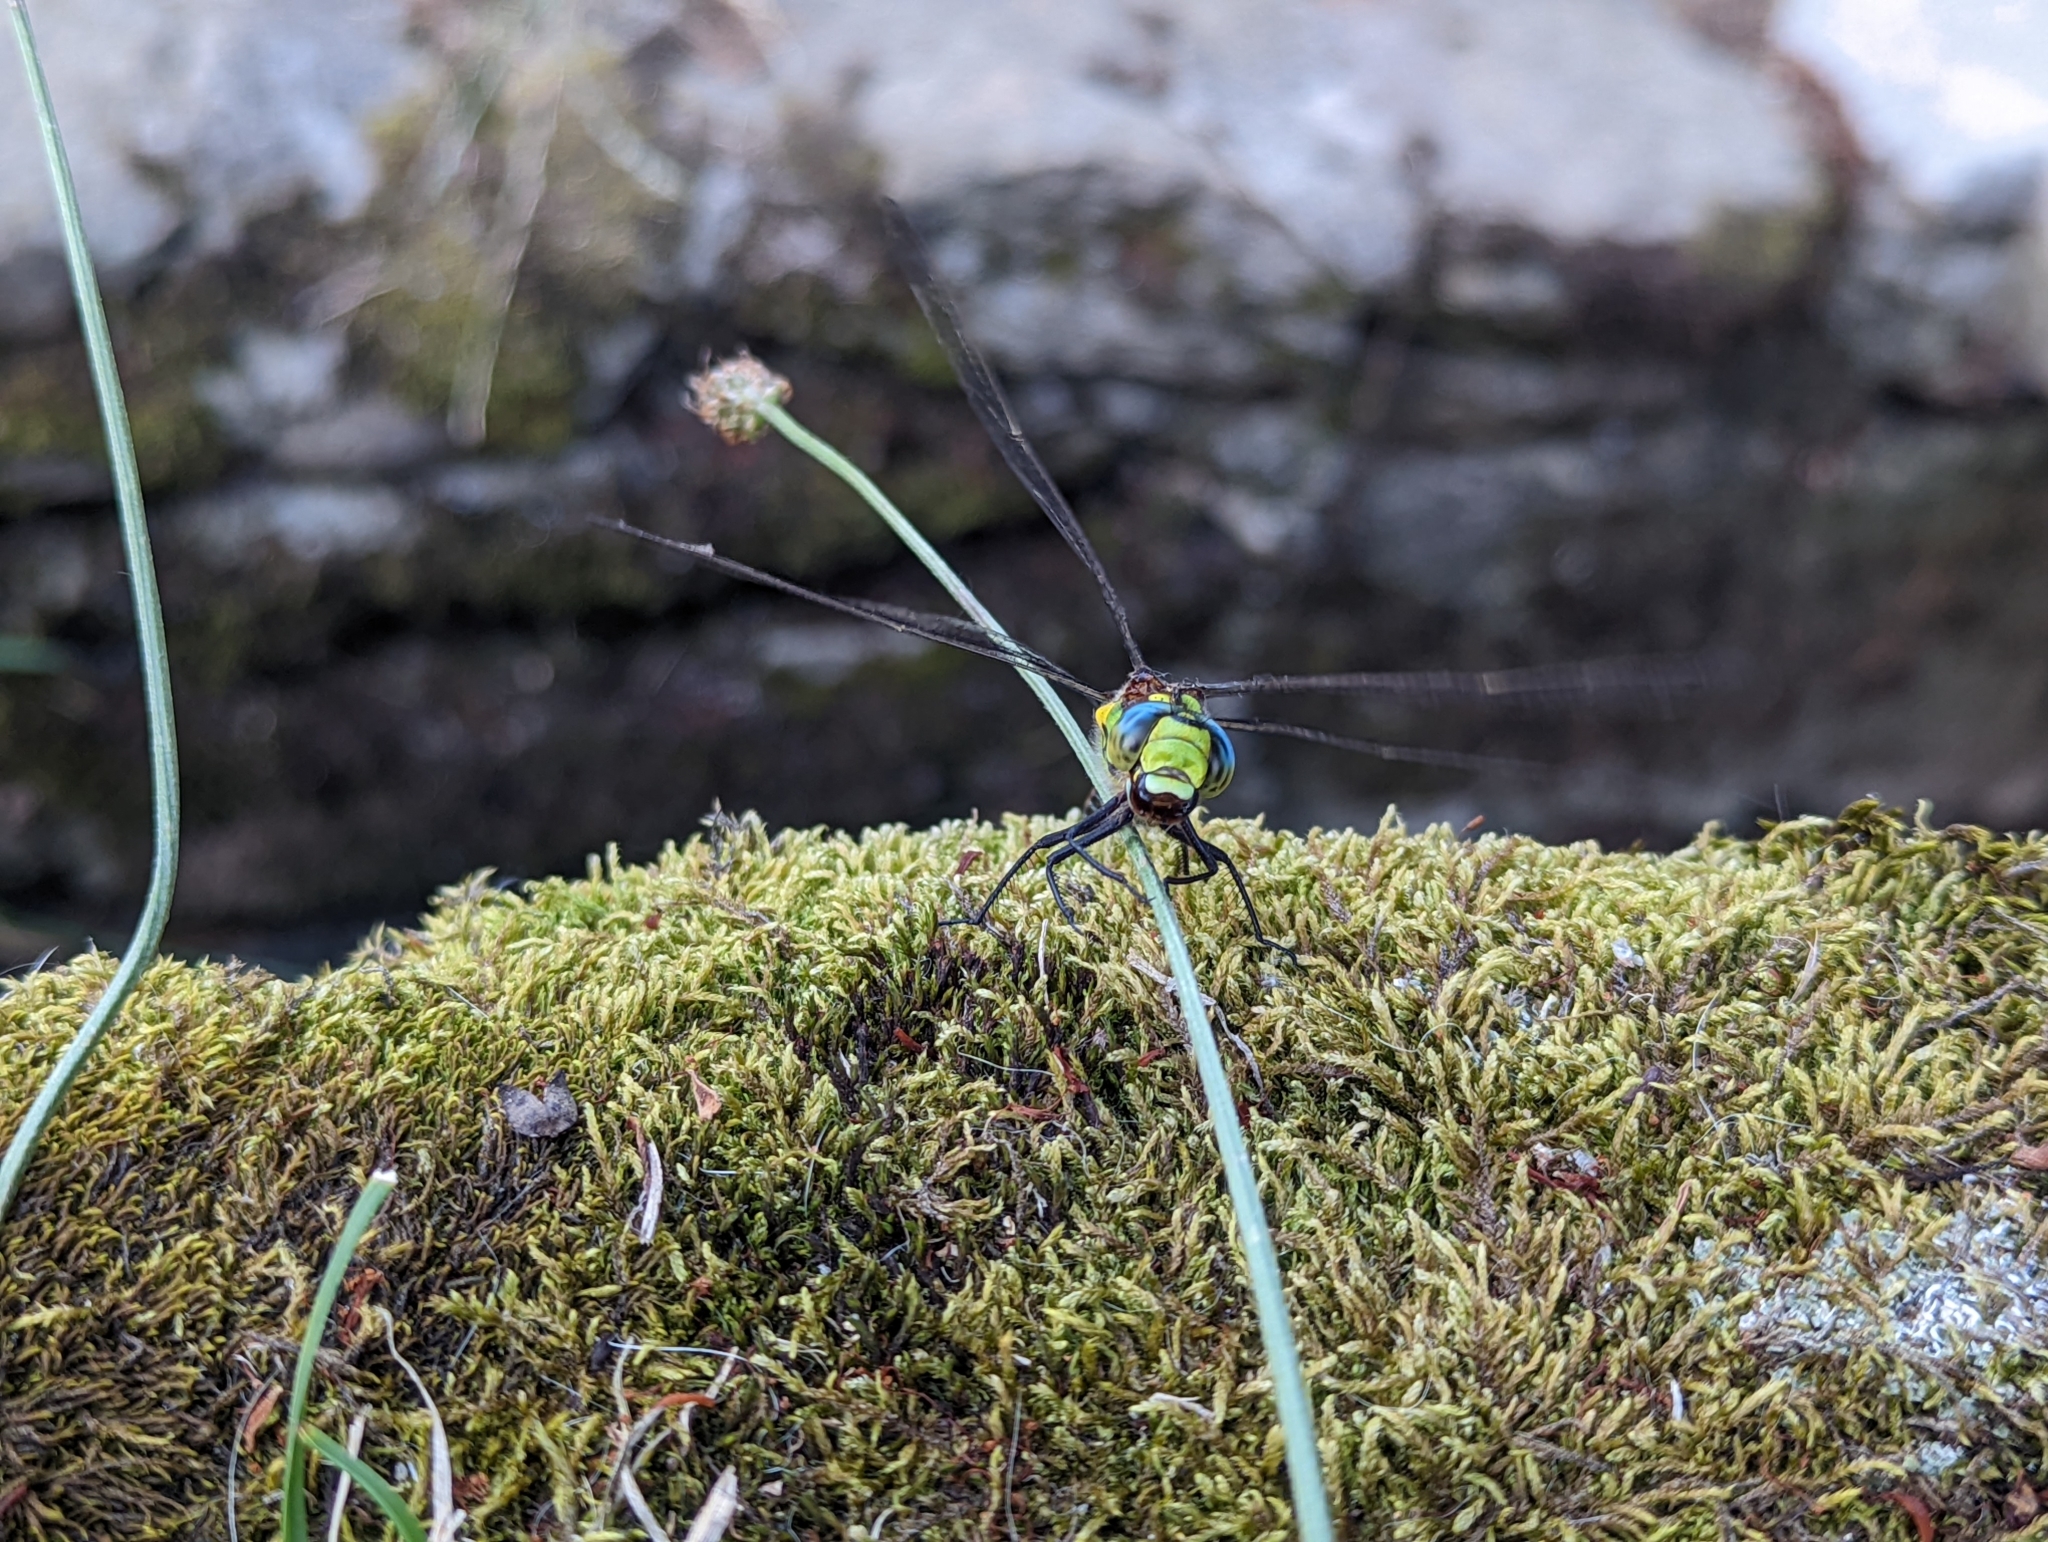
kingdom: Animalia
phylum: Arthropoda
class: Insecta
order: Odonata
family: Aeshnidae
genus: Aeshna
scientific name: Aeshna cyanea
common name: Southern hawker
